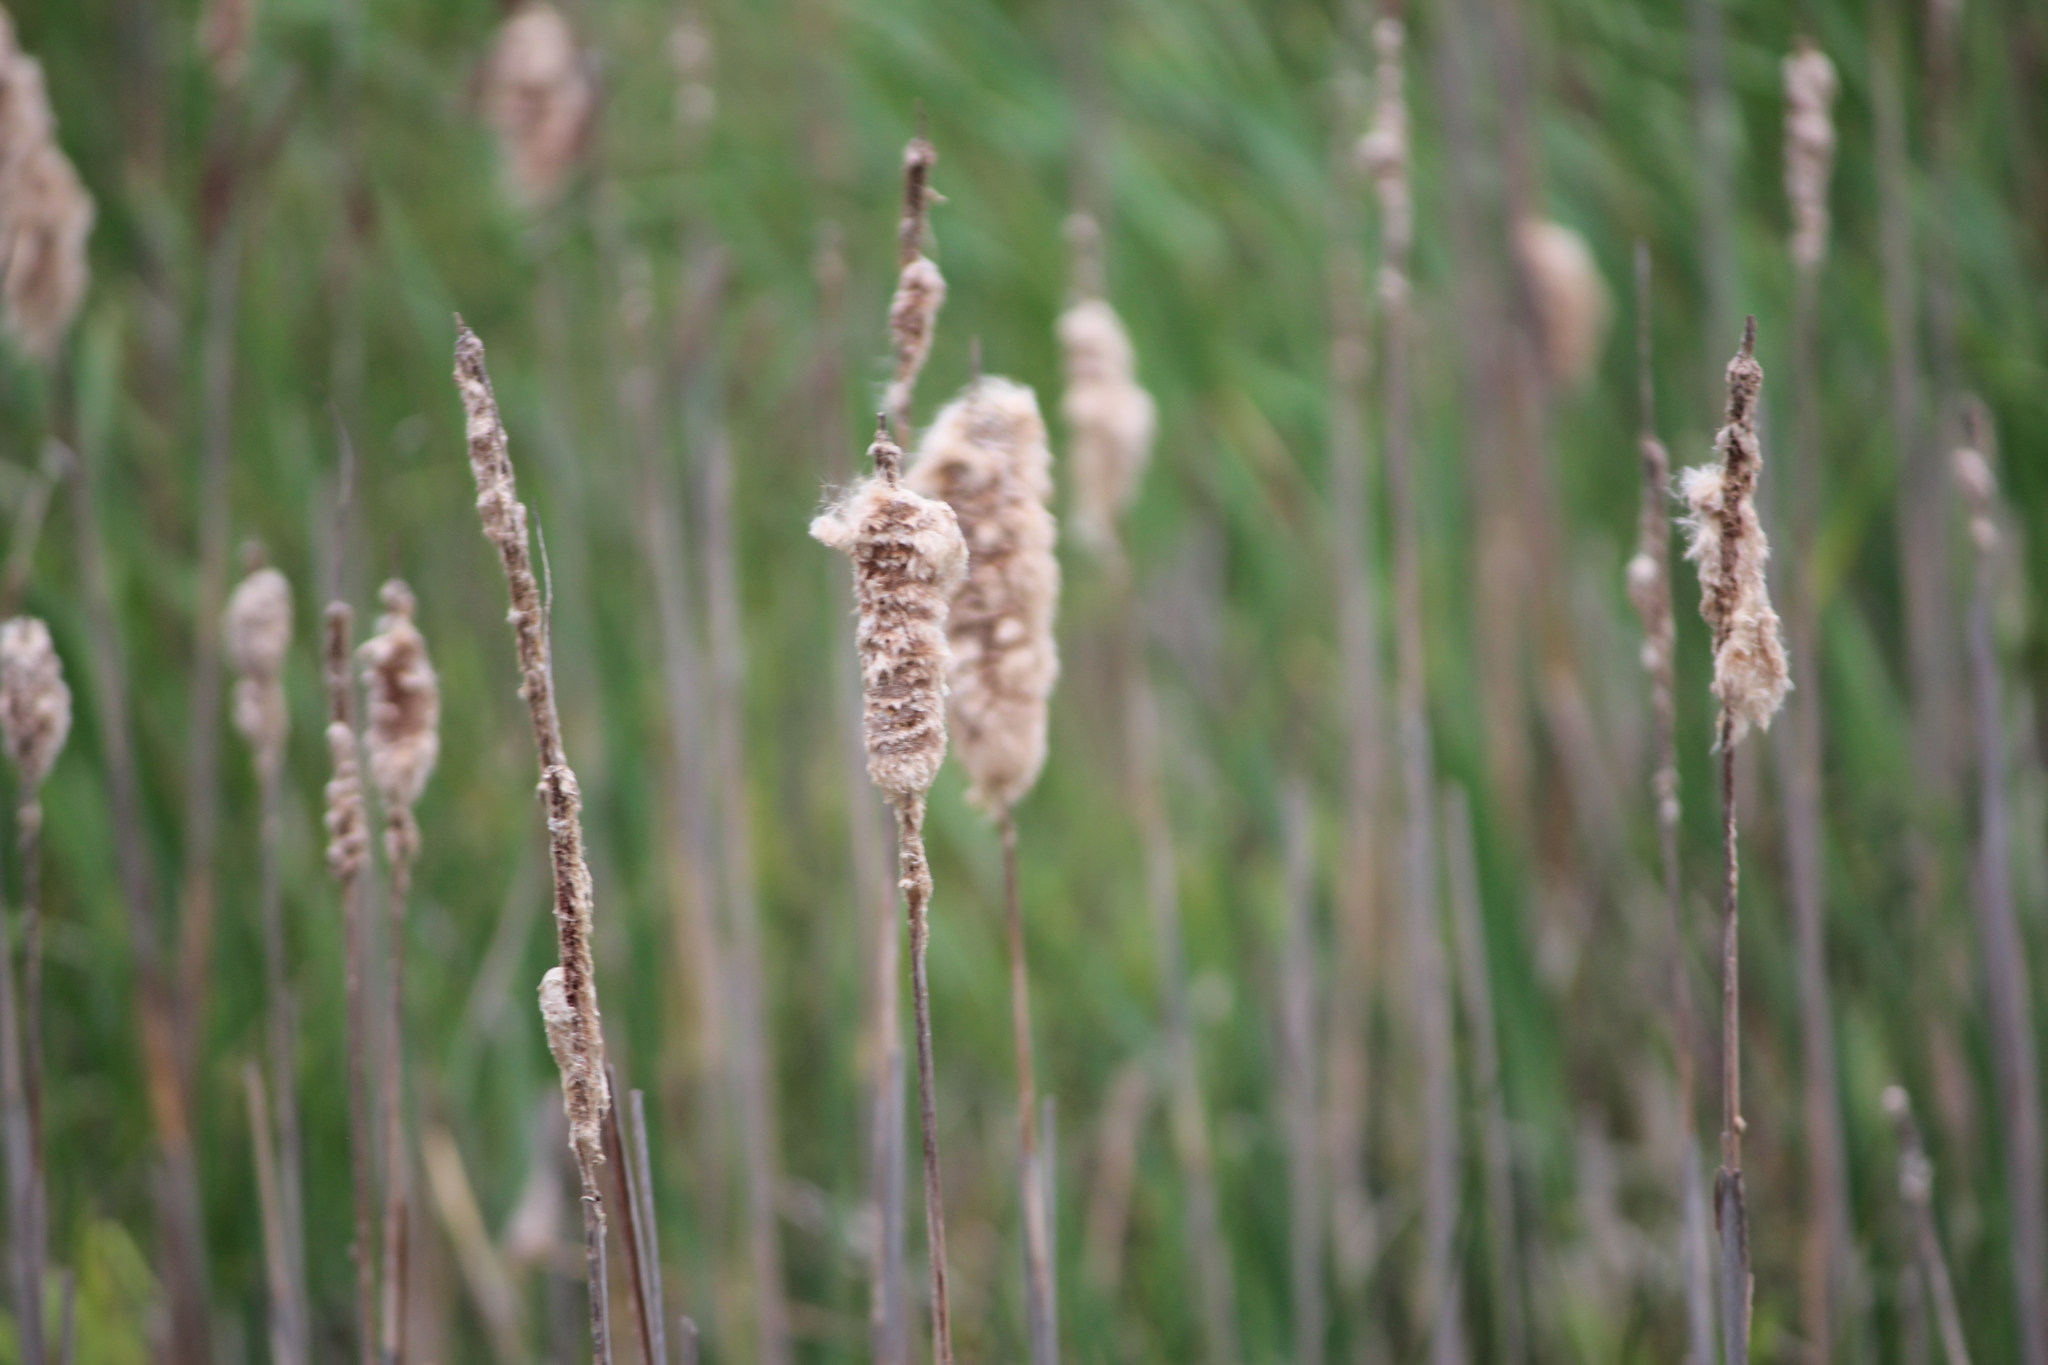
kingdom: Plantae
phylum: Tracheophyta
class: Liliopsida
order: Poales
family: Typhaceae
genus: Typha
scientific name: Typha latifolia
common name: Broadleaf cattail
